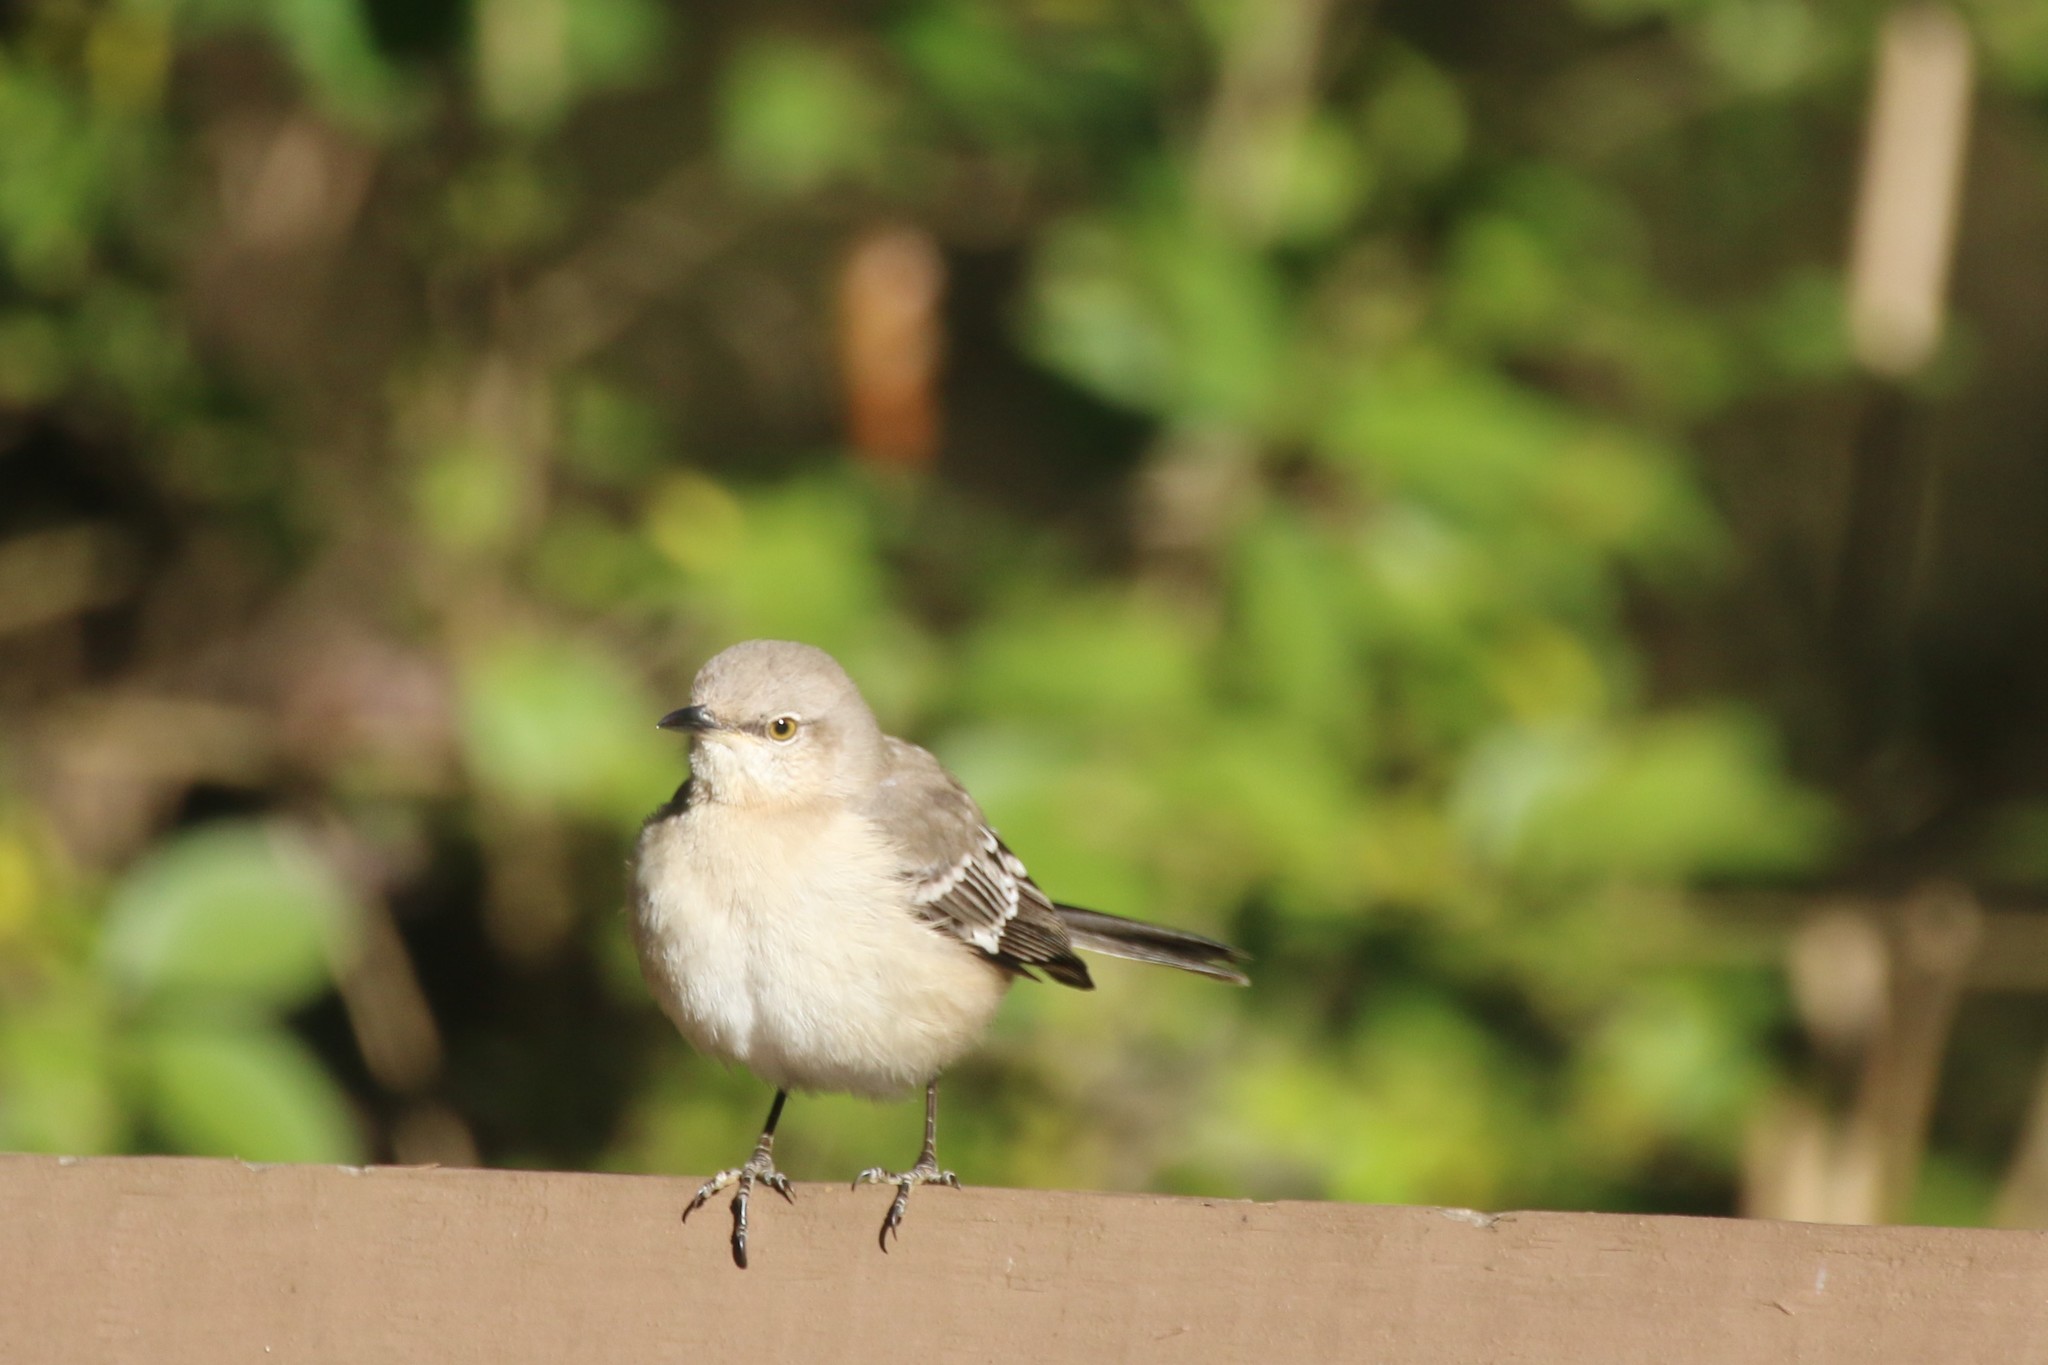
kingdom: Animalia
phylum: Chordata
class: Aves
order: Passeriformes
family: Mimidae
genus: Mimus
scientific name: Mimus polyglottos
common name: Northern mockingbird
